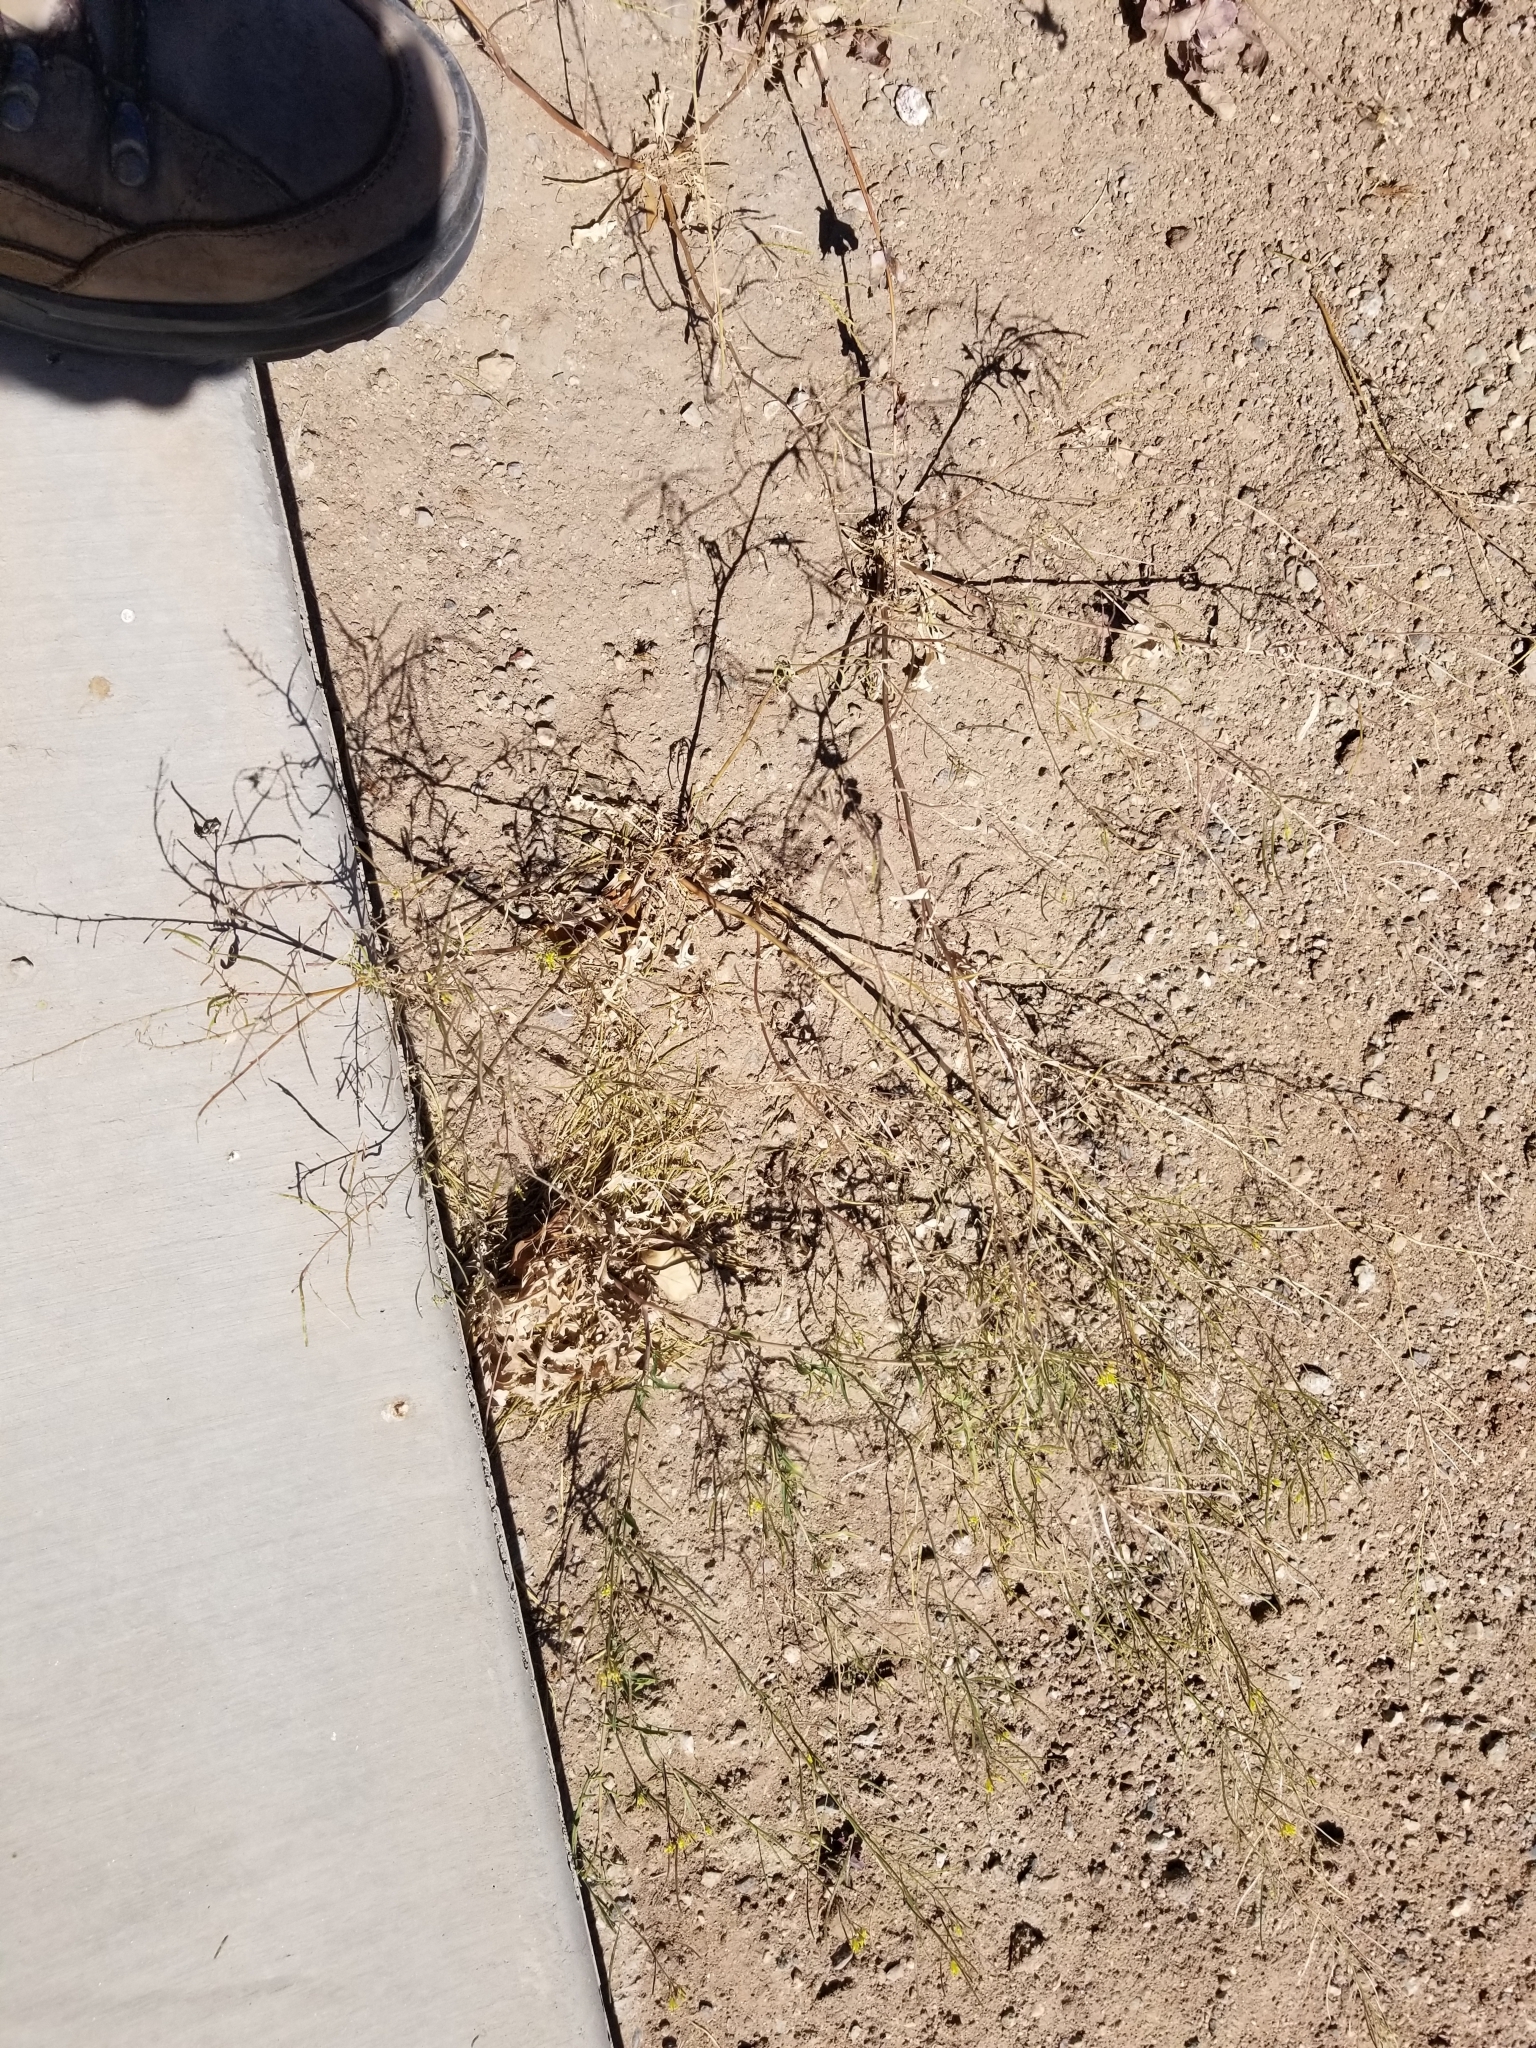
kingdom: Plantae
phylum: Tracheophyta
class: Magnoliopsida
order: Brassicales
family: Brassicaceae
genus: Sisymbrium
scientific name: Sisymbrium irio
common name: London rocket
